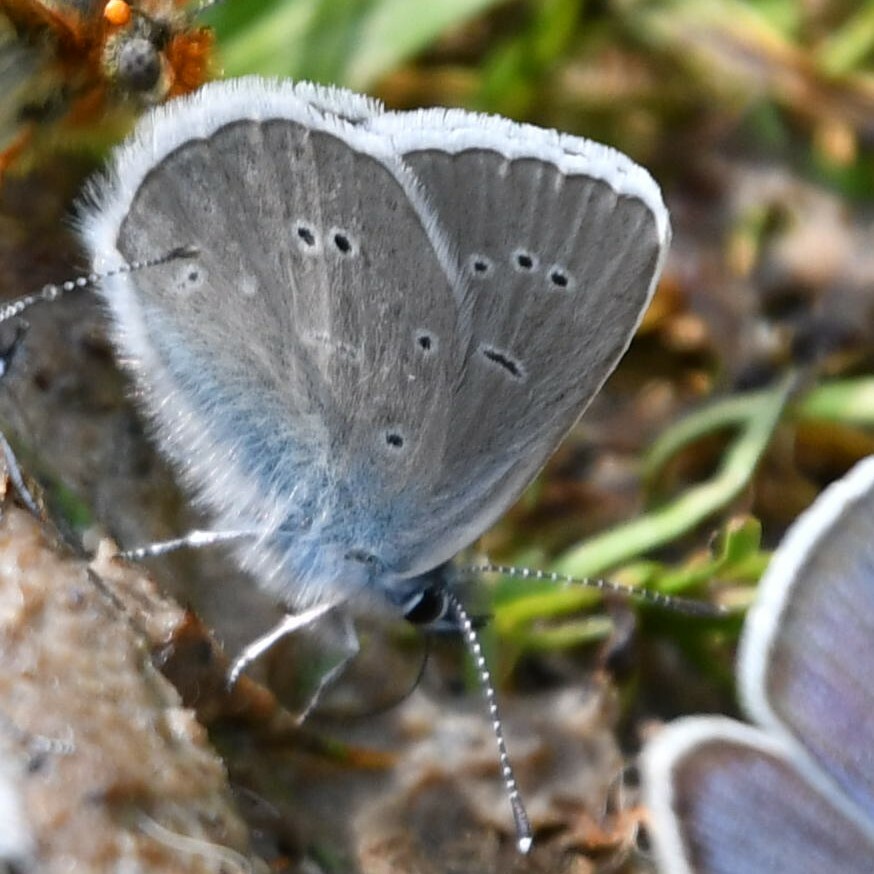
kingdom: Animalia
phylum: Arthropoda
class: Insecta
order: Lepidoptera
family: Lycaenidae
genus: Cyaniris
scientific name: Cyaniris semiargus
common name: Mazarine blue
